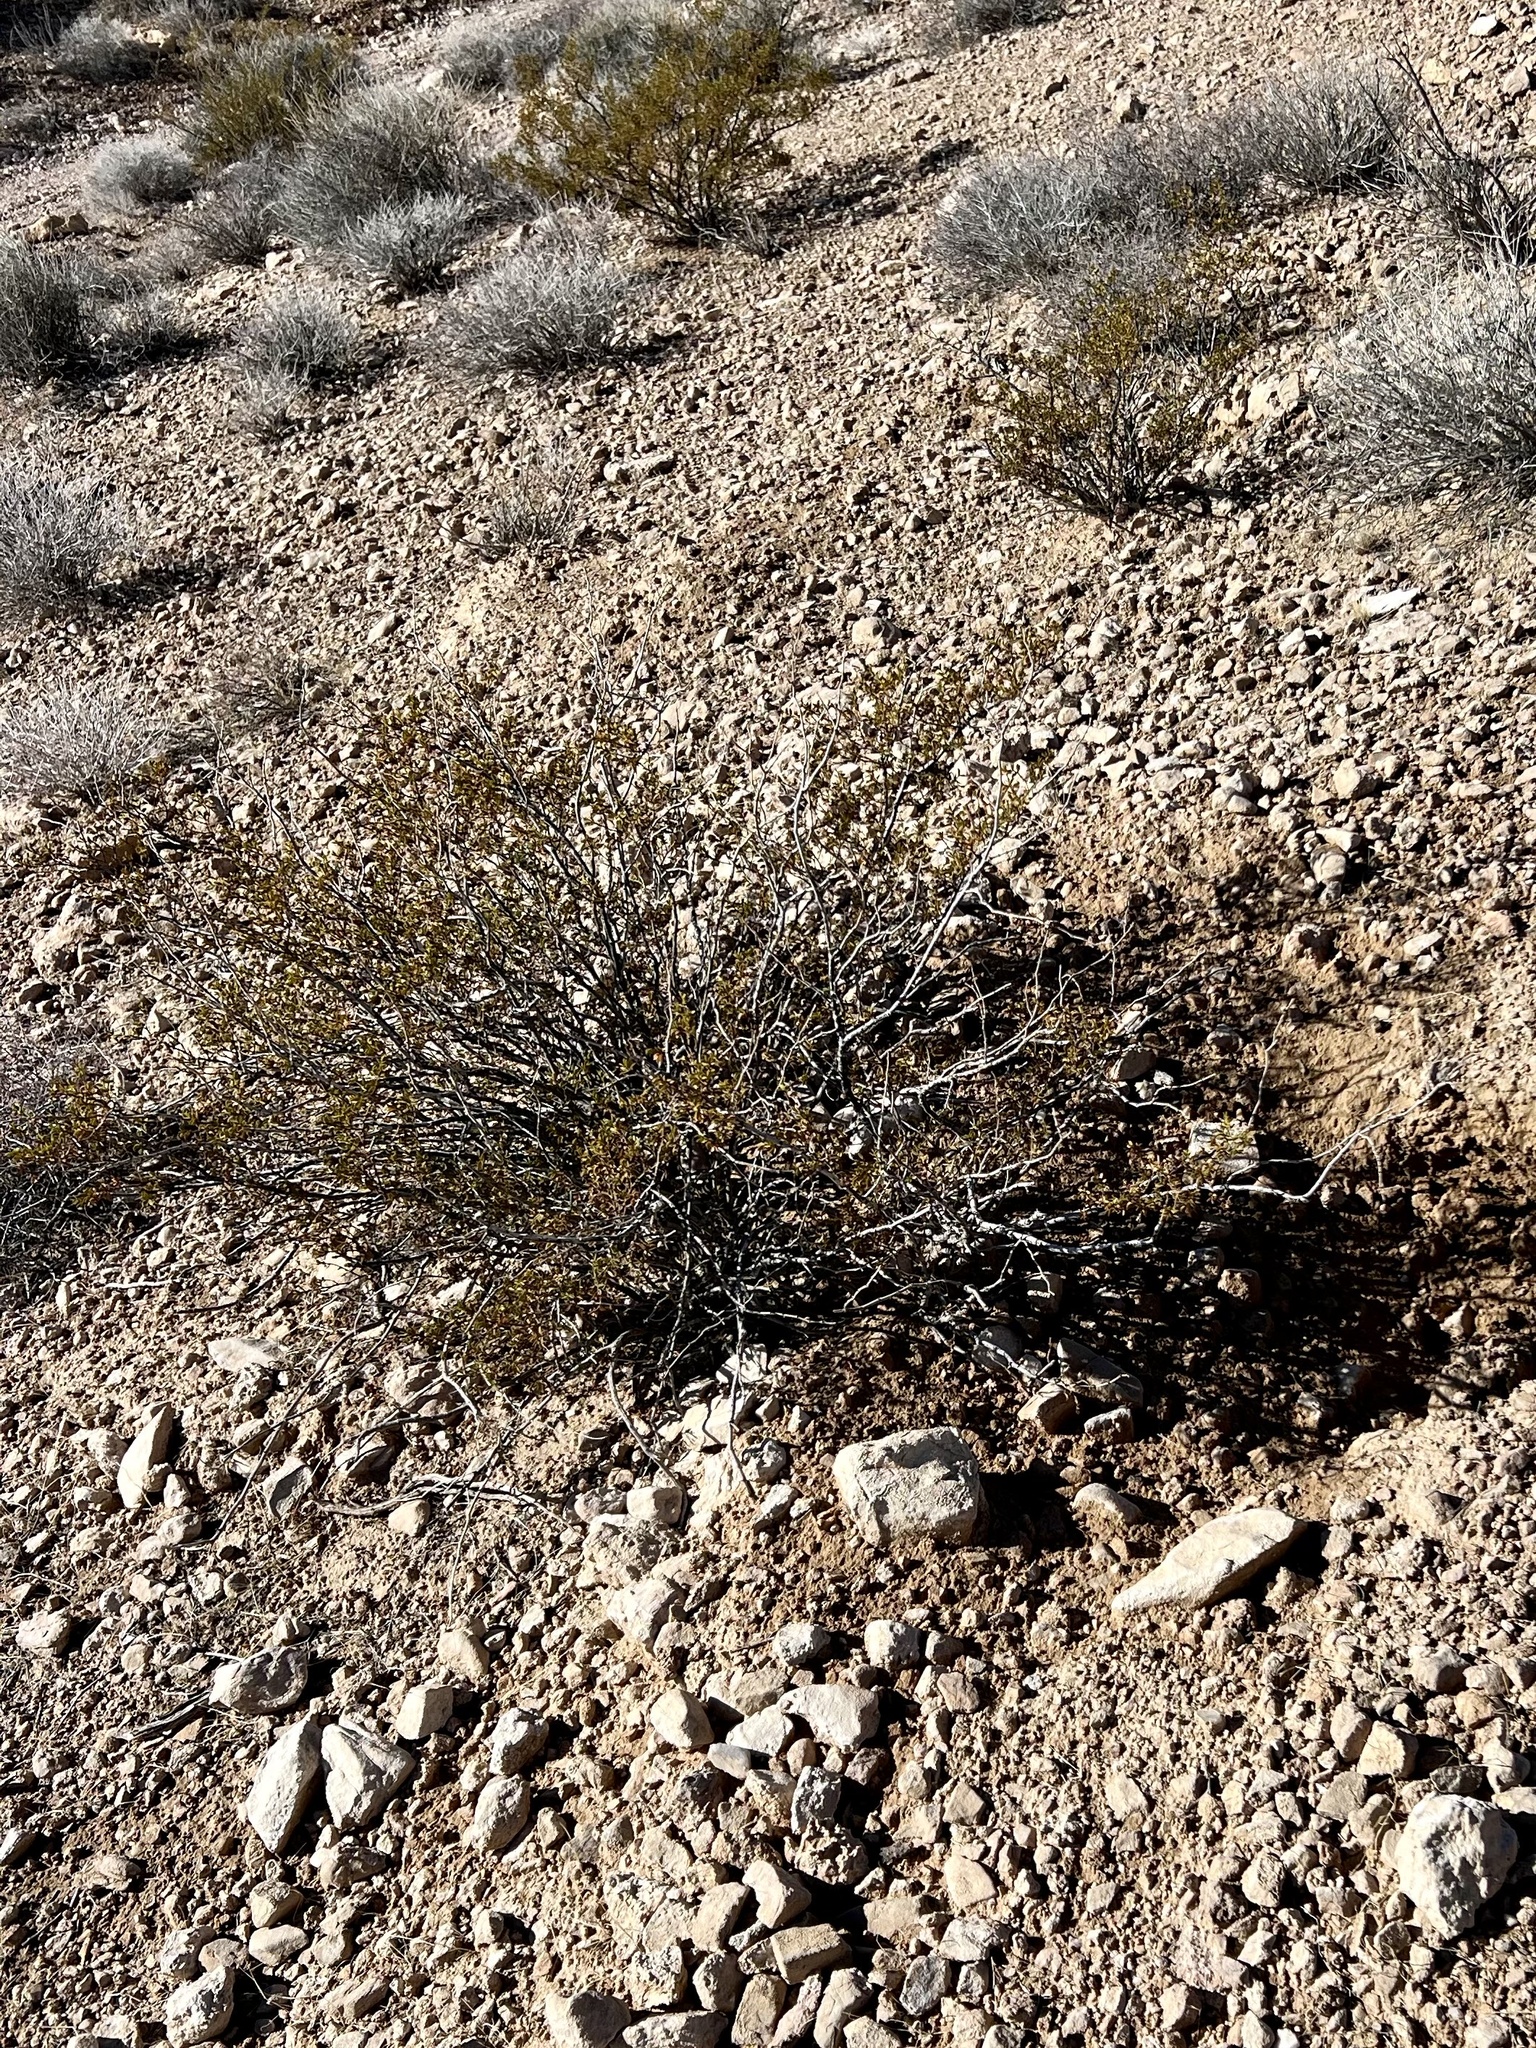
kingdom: Plantae
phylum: Tracheophyta
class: Magnoliopsida
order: Zygophyllales
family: Zygophyllaceae
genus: Larrea
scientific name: Larrea tridentata
